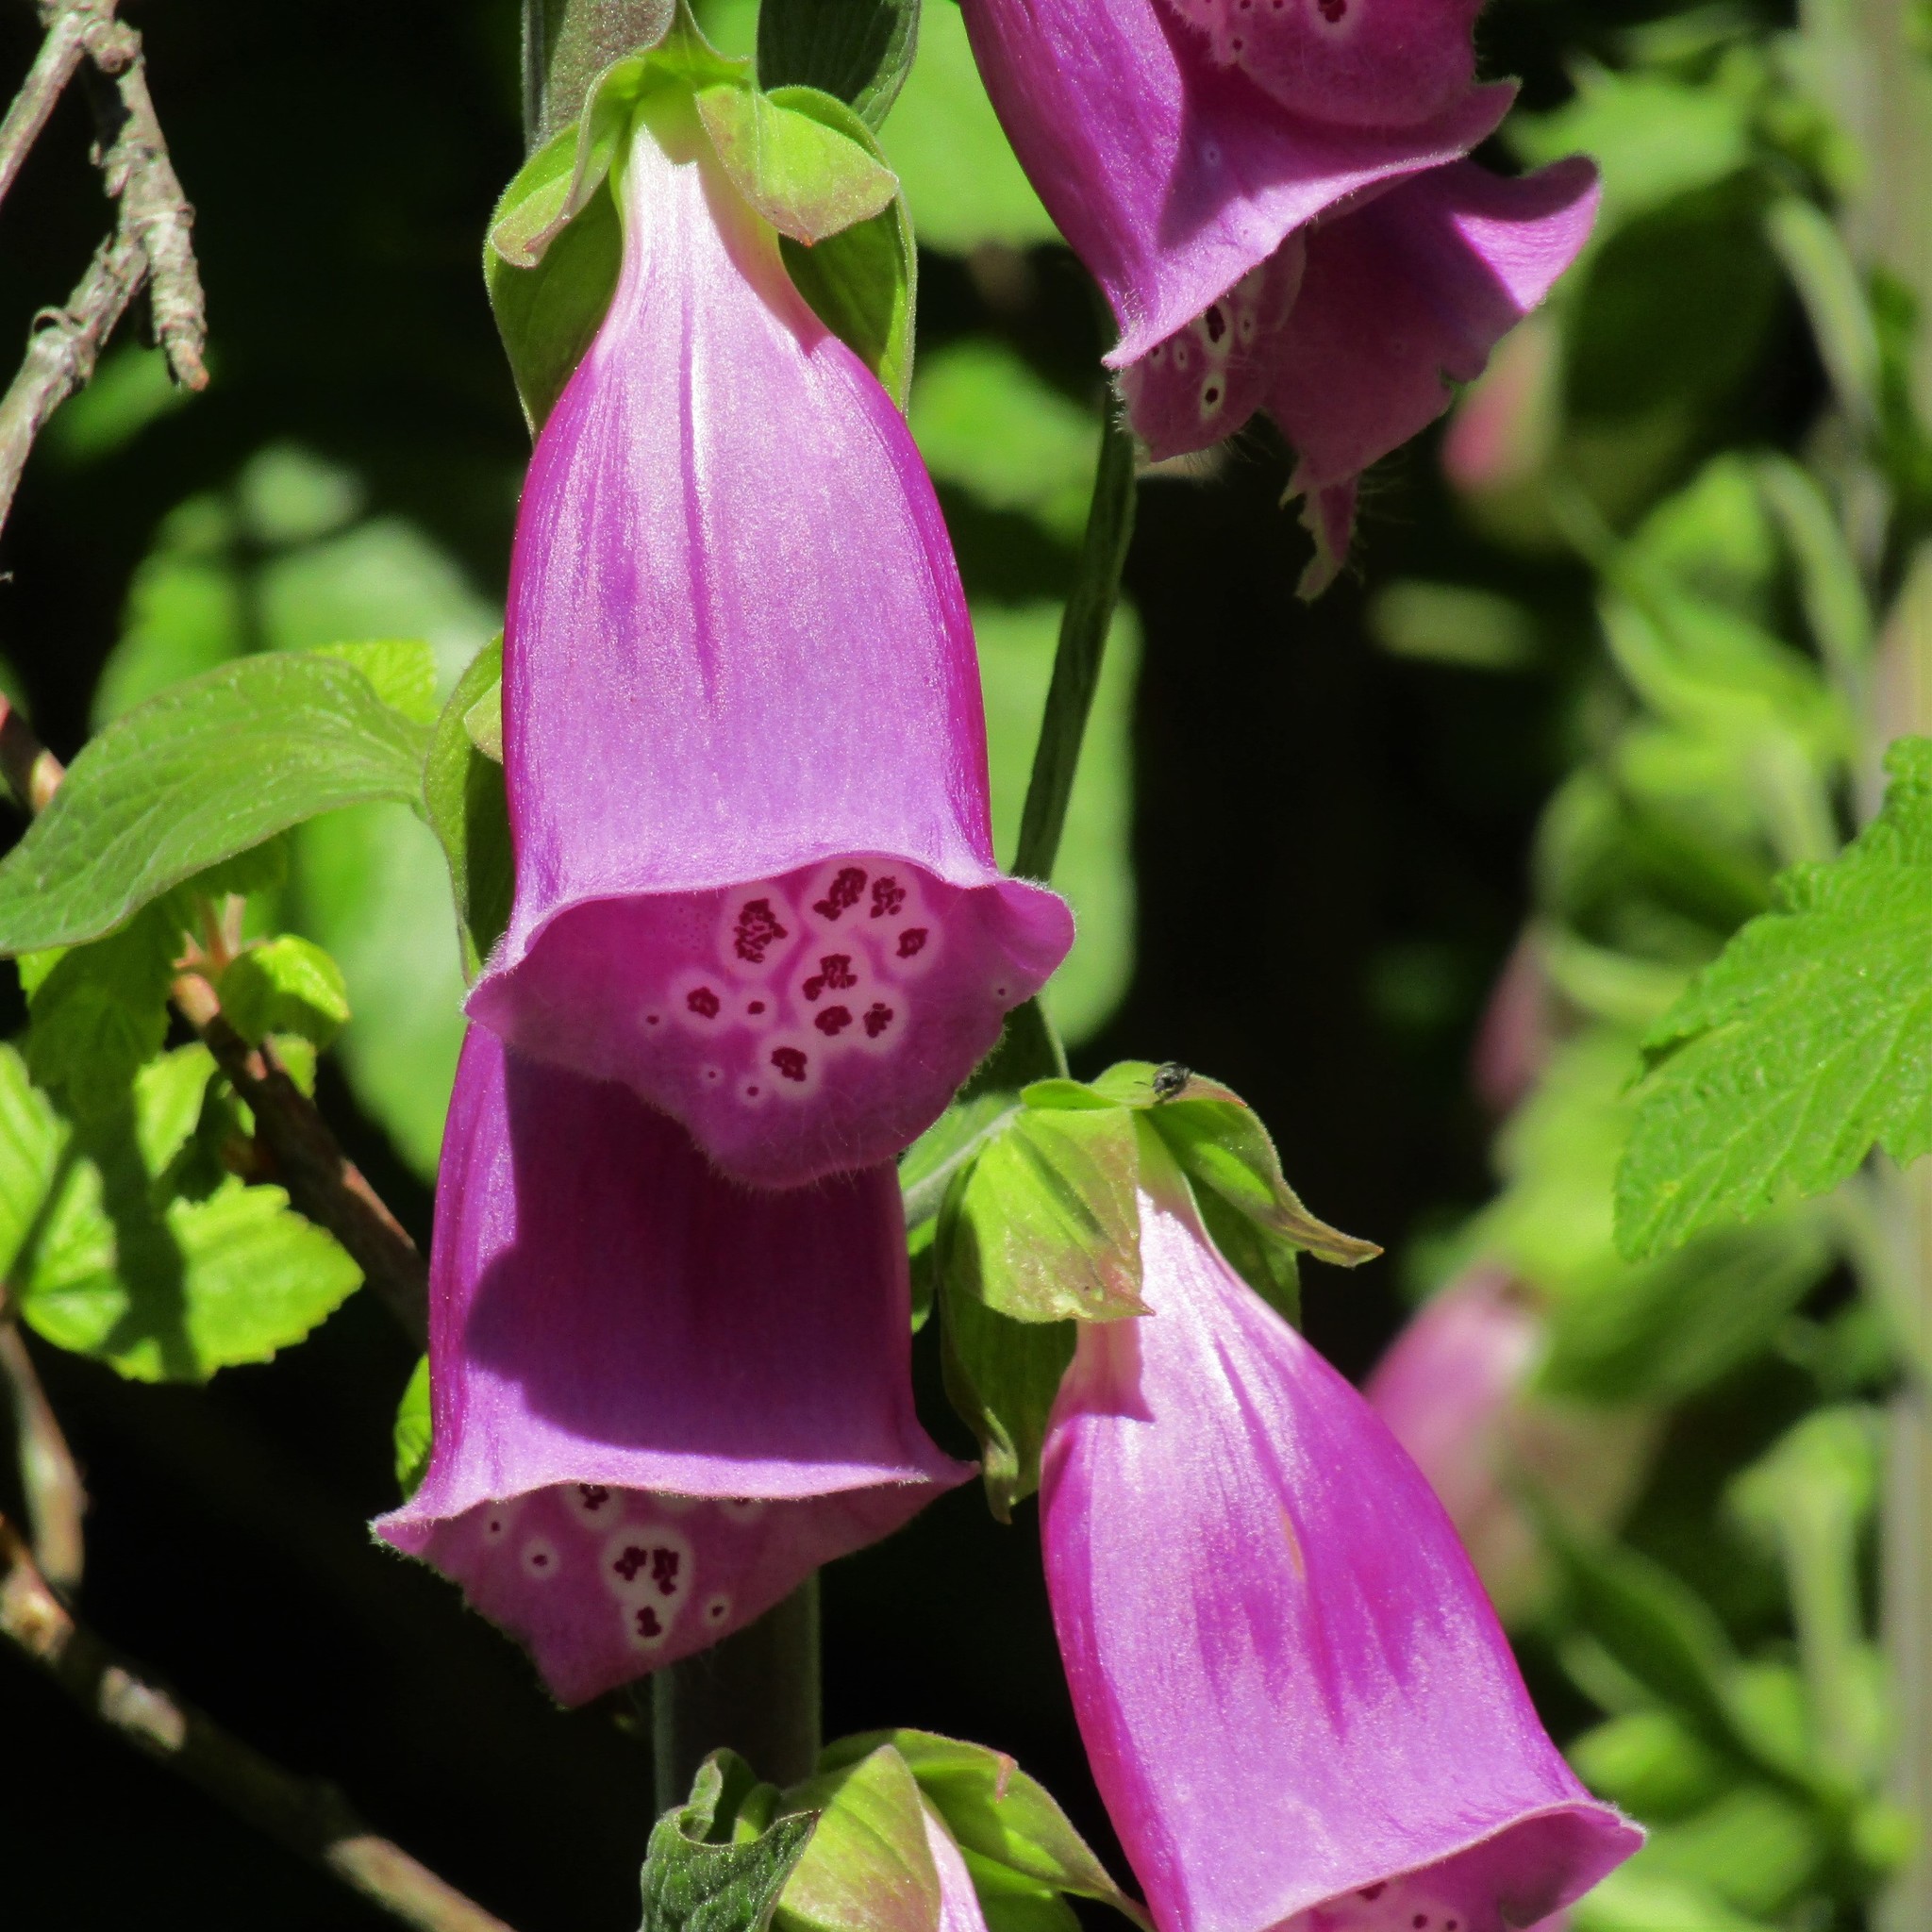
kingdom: Plantae
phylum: Tracheophyta
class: Magnoliopsida
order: Lamiales
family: Plantaginaceae
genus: Digitalis
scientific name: Digitalis purpurea
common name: Foxglove
